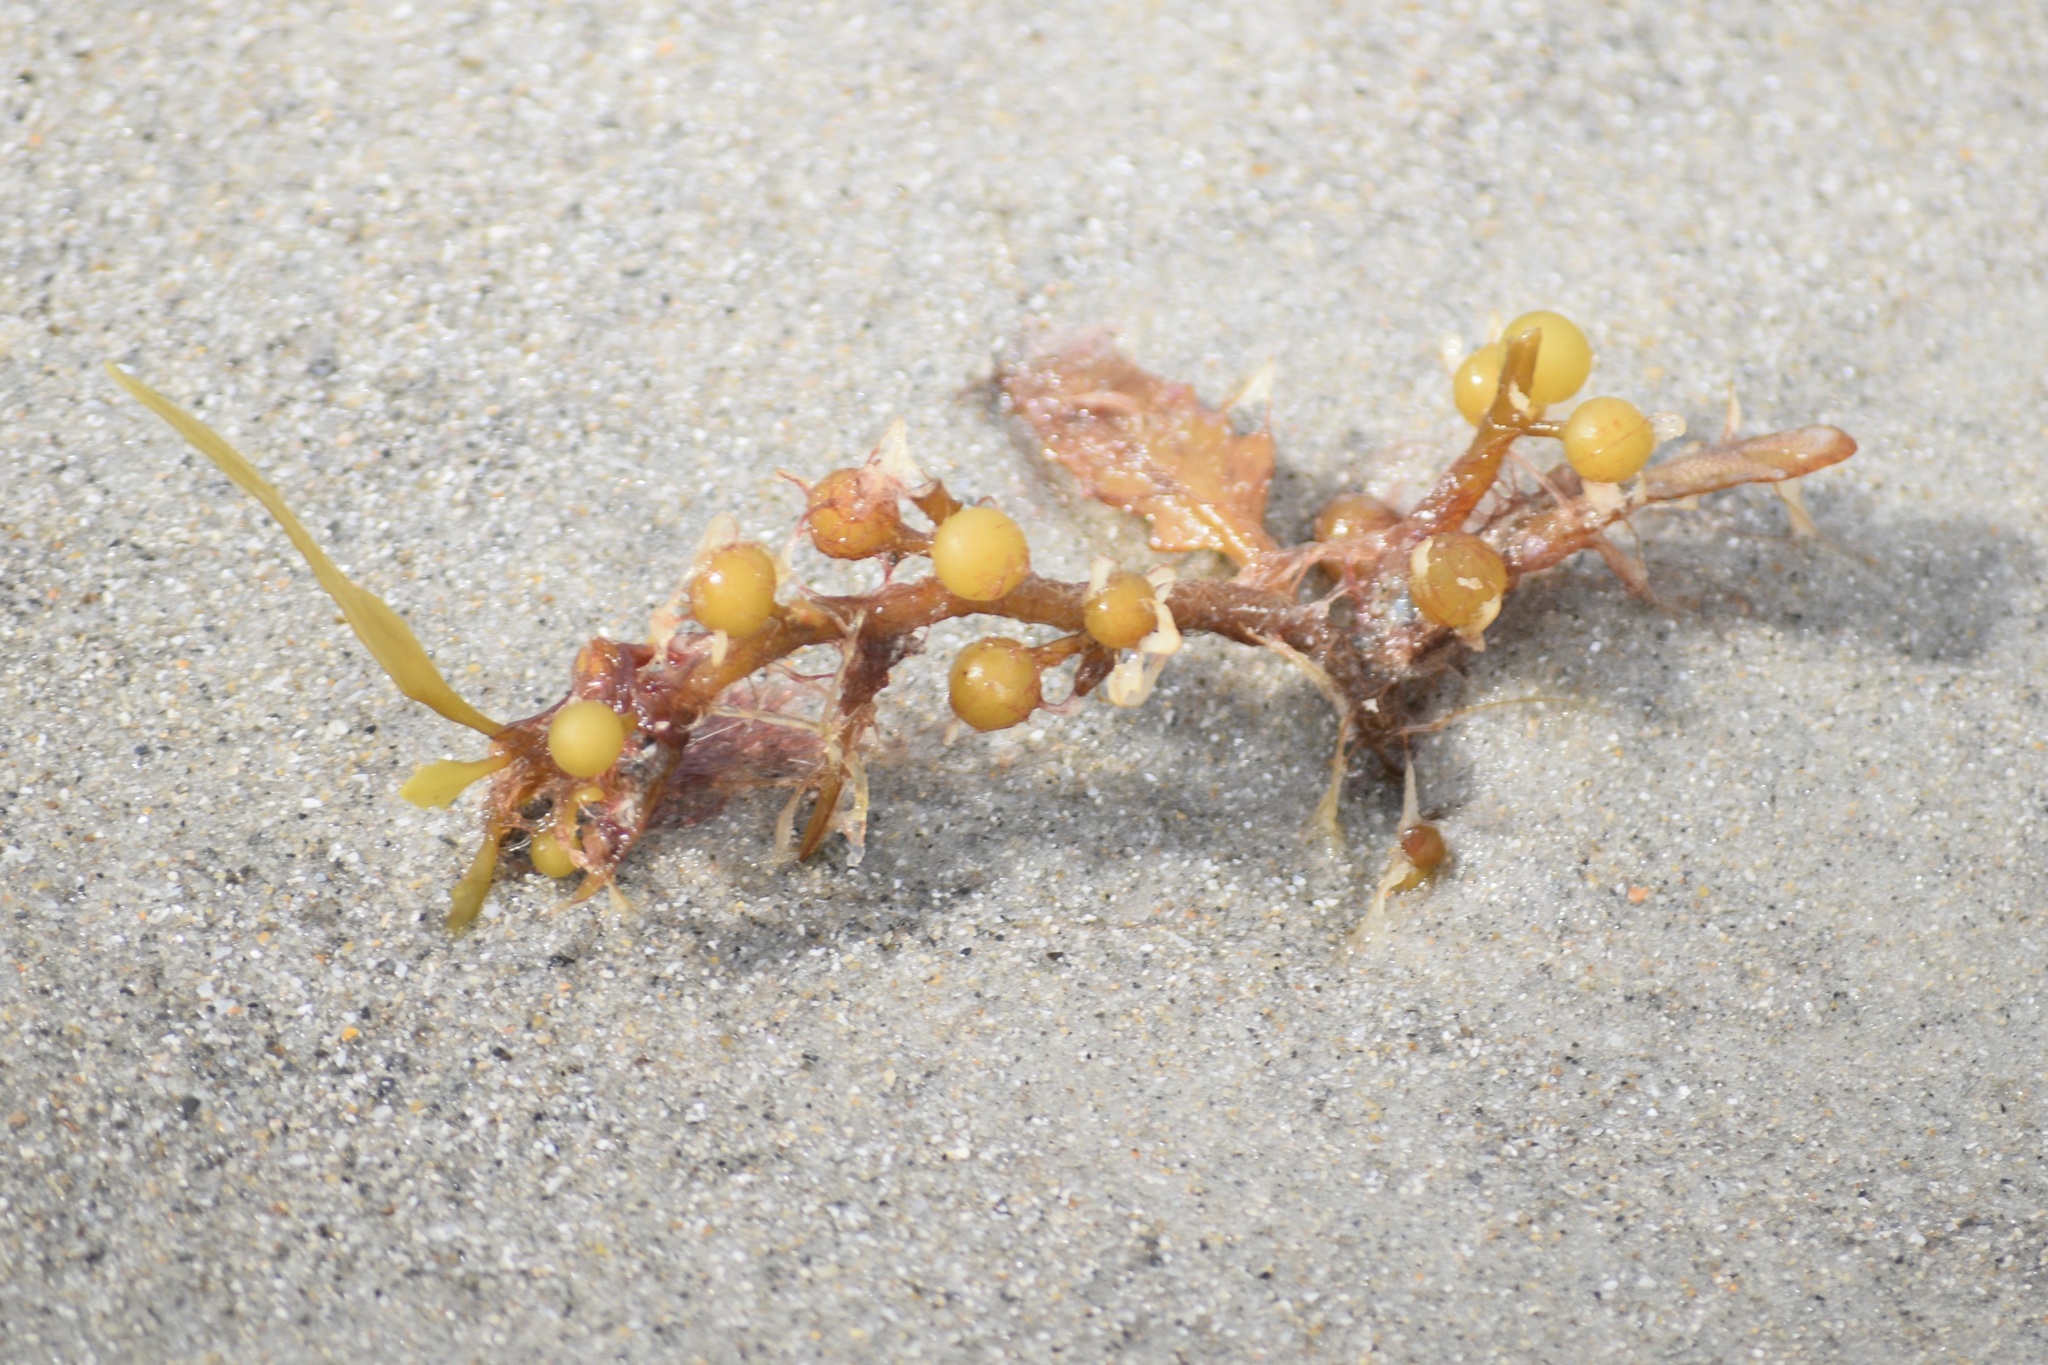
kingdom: Chromista
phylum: Ochrophyta
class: Phaeophyceae
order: Fucales
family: Sargassaceae
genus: Sargassum
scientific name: Sargassum fluitans
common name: Sargassum seaweed
